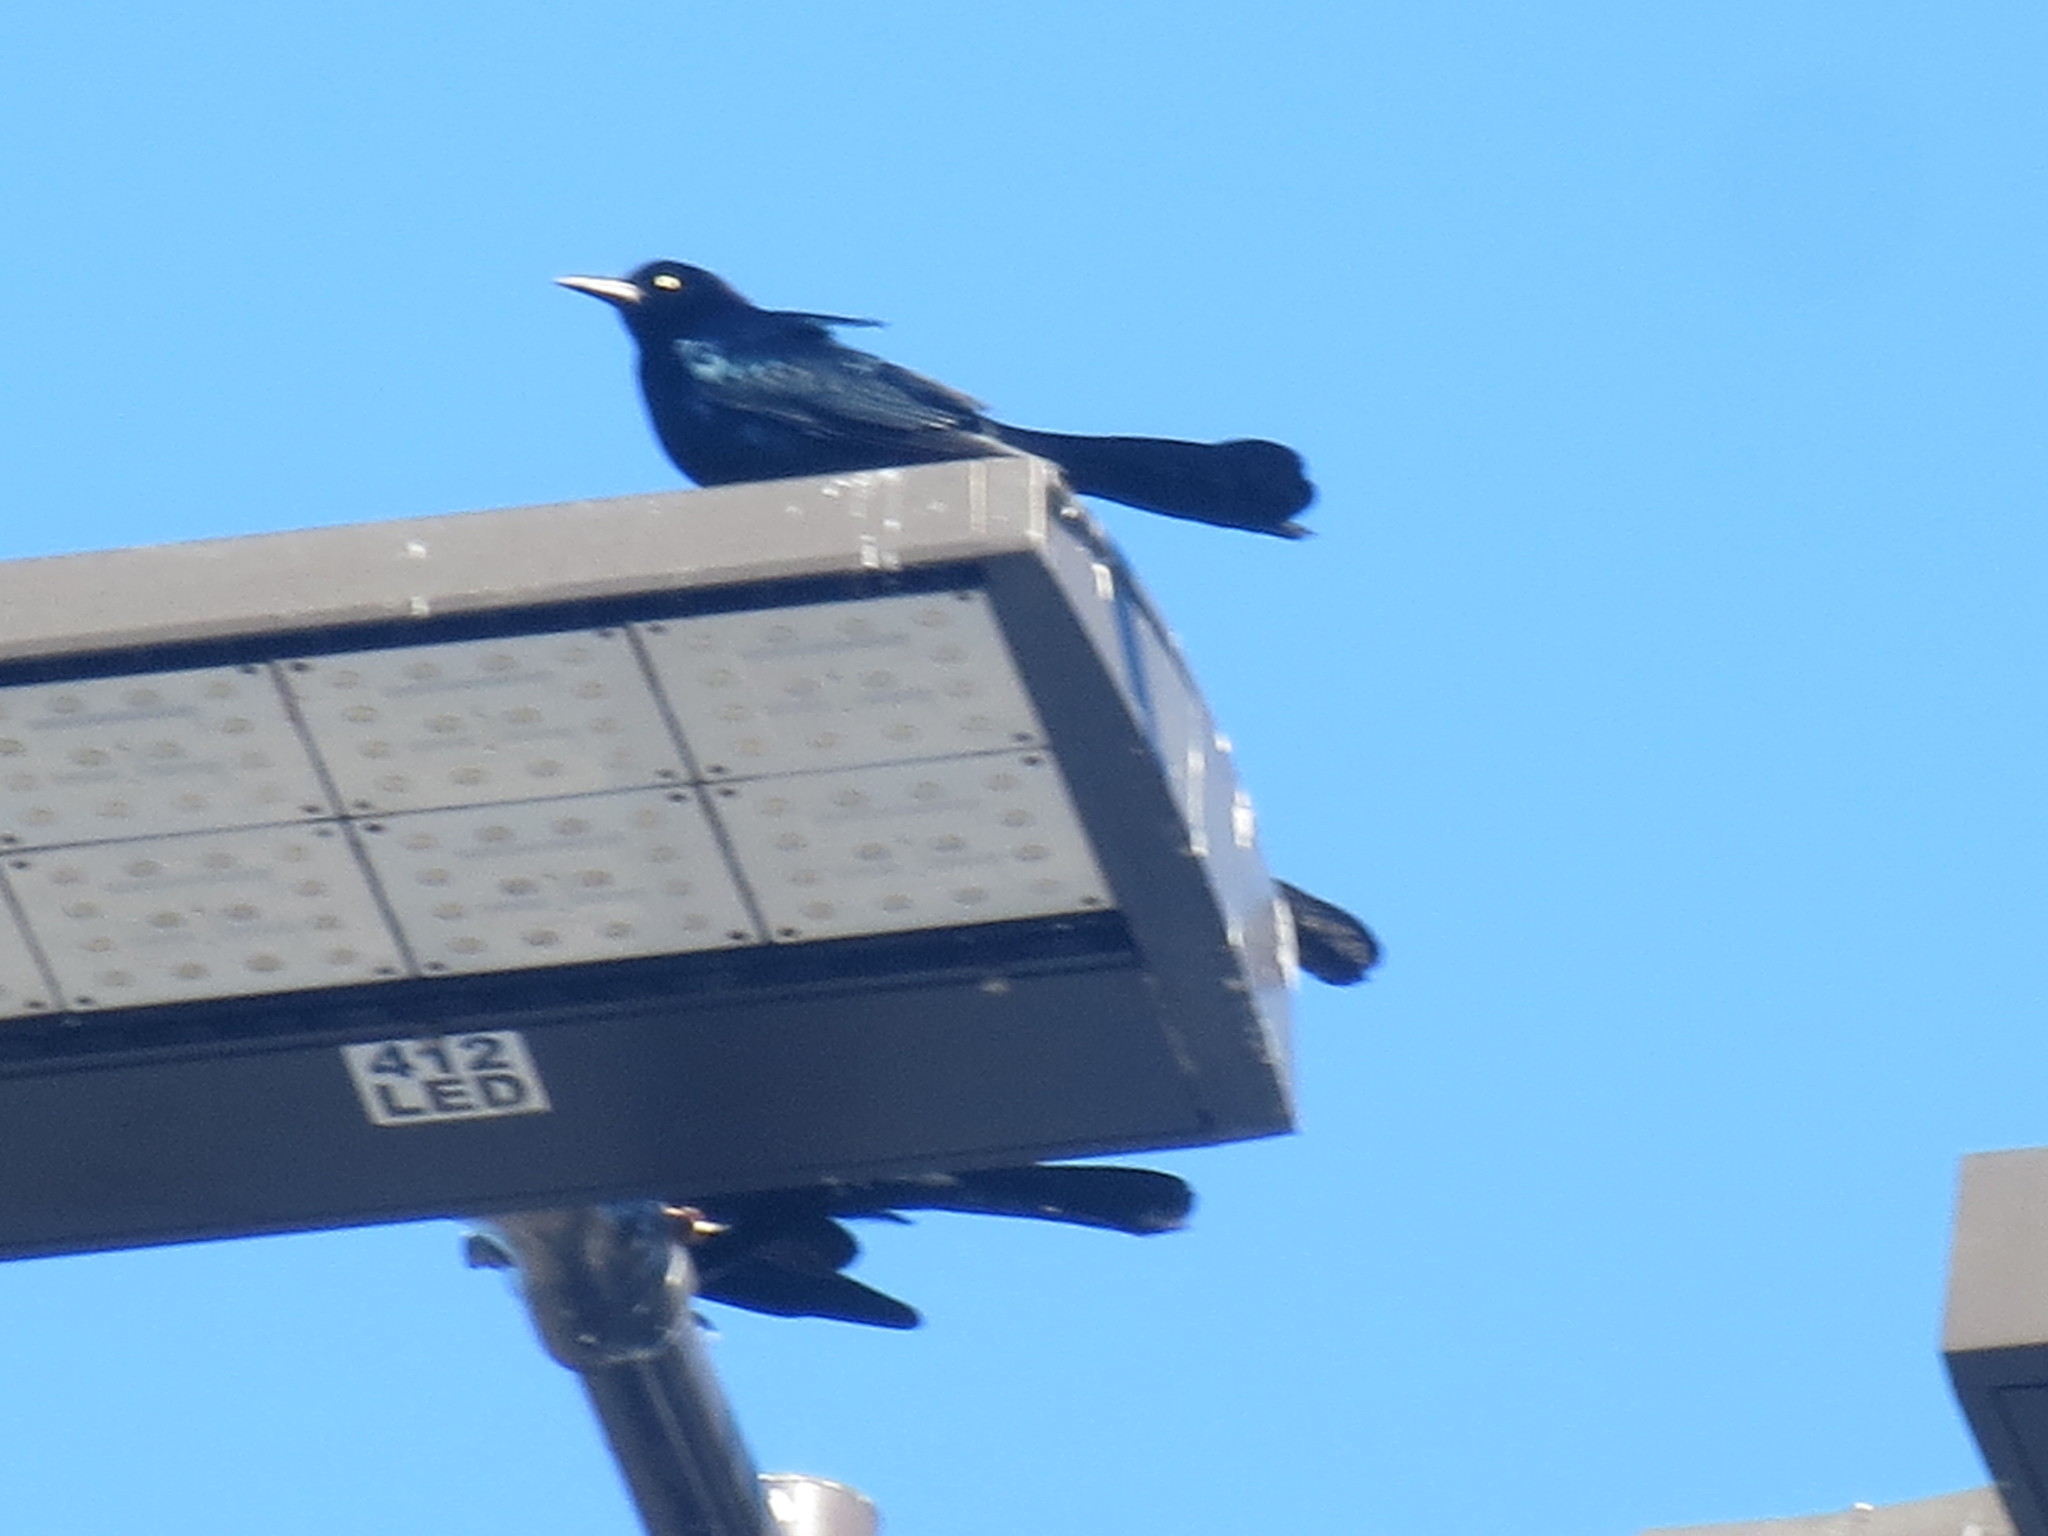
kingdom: Animalia
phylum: Chordata
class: Aves
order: Passeriformes
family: Icteridae
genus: Quiscalus
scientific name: Quiscalus major
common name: Boat-tailed grackle
